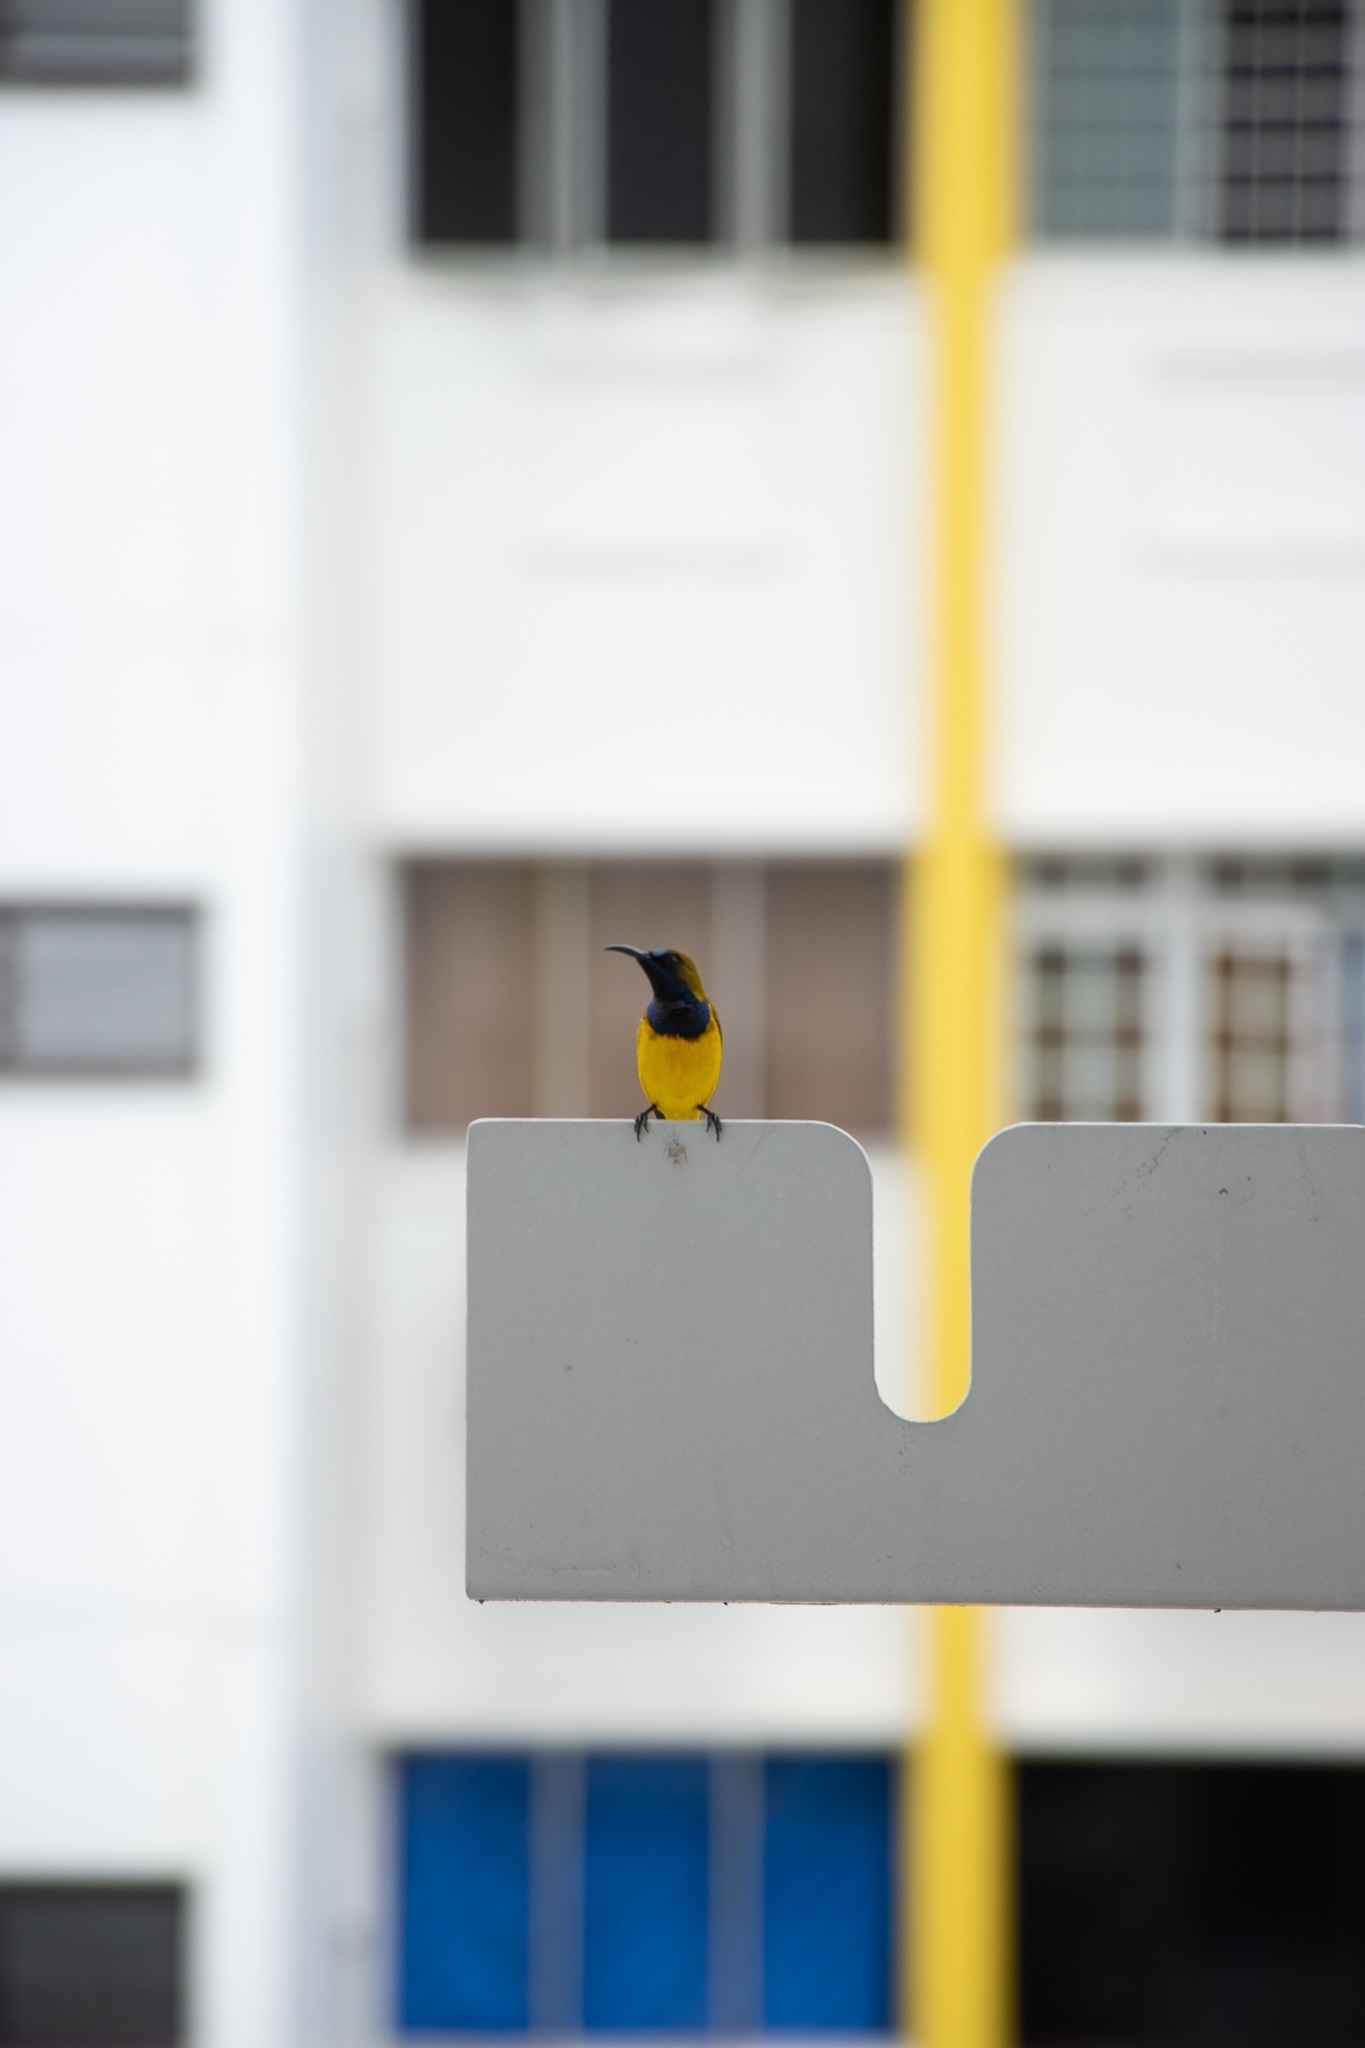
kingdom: Animalia
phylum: Chordata
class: Aves
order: Passeriformes
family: Nectariniidae
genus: Cinnyris
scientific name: Cinnyris
